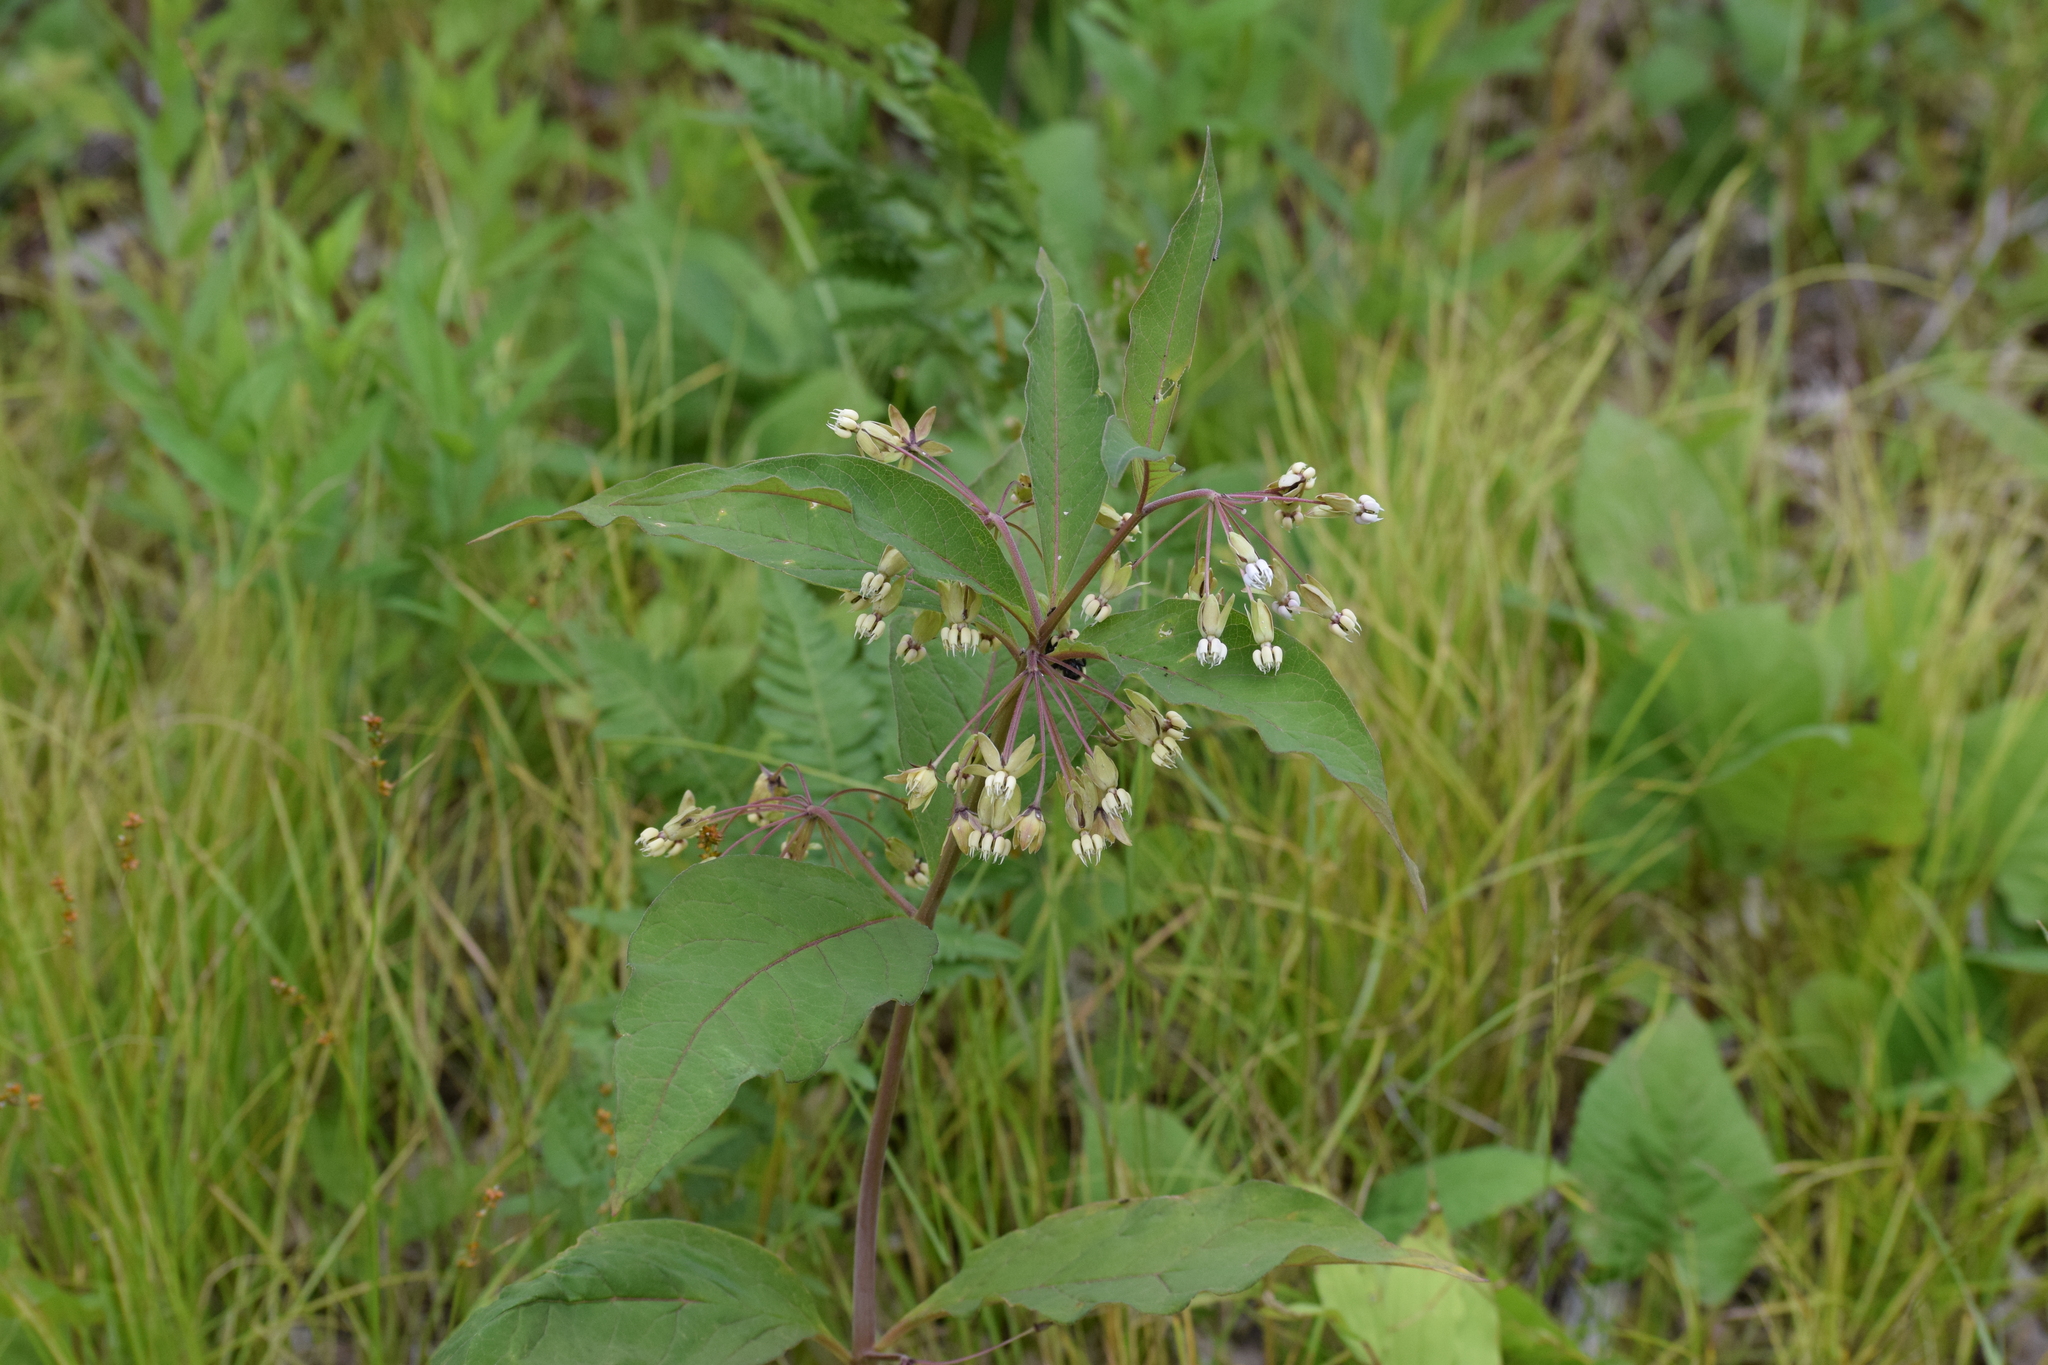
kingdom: Plantae
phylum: Tracheophyta
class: Magnoliopsida
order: Gentianales
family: Apocynaceae
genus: Asclepias
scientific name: Asclepias exaltata
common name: Poke milkweed
